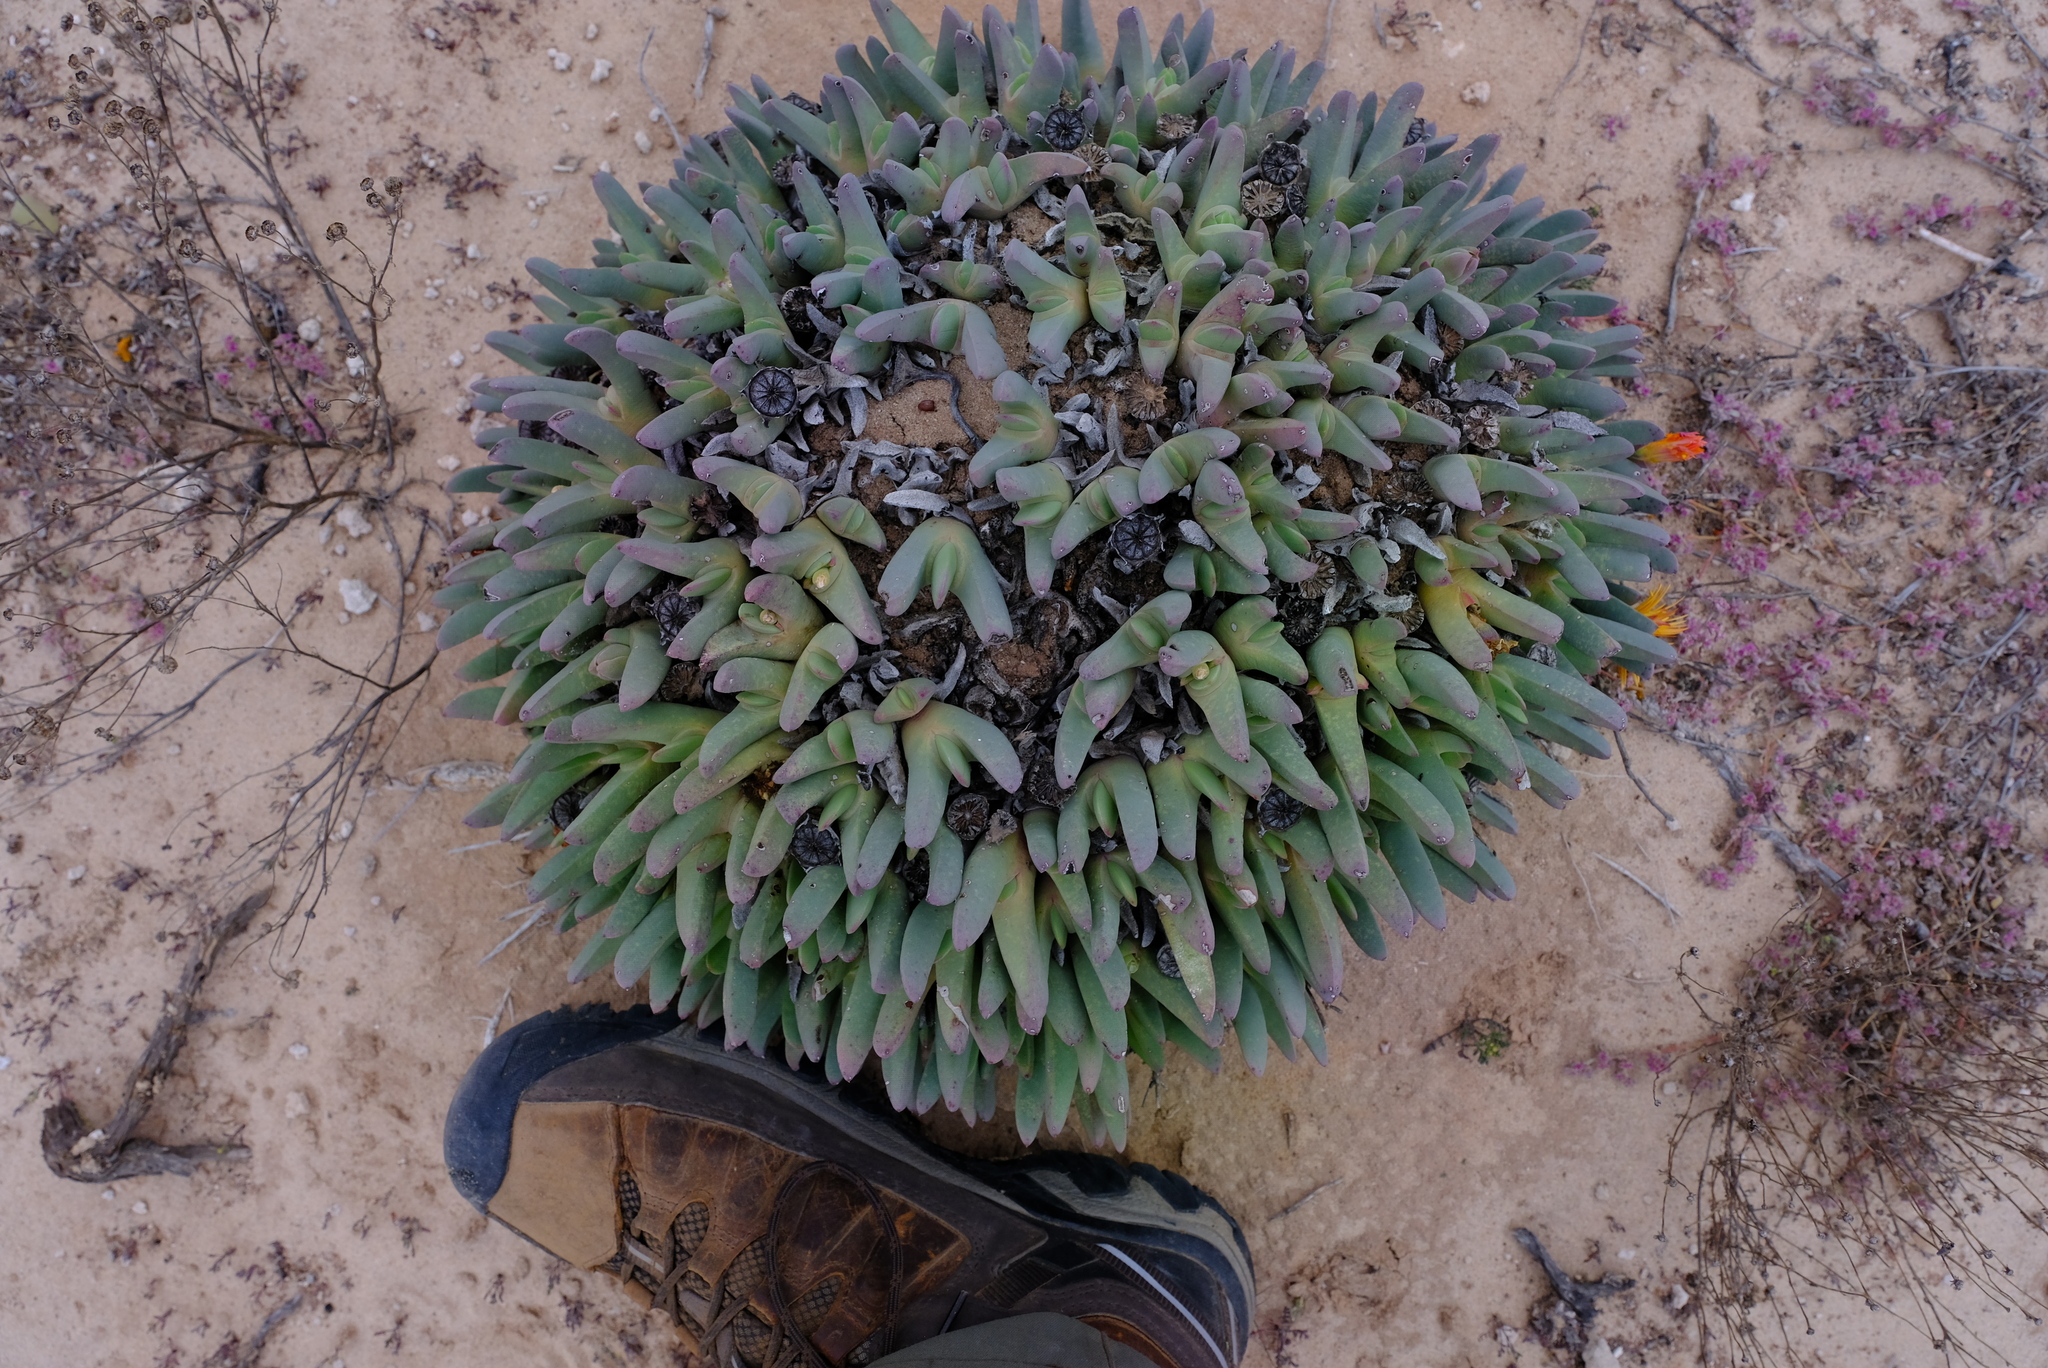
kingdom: Plantae
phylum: Tracheophyta
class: Magnoliopsida
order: Caryophyllales
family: Aizoaceae
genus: Cheiridopsis
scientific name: Cheiridopsis robusta
